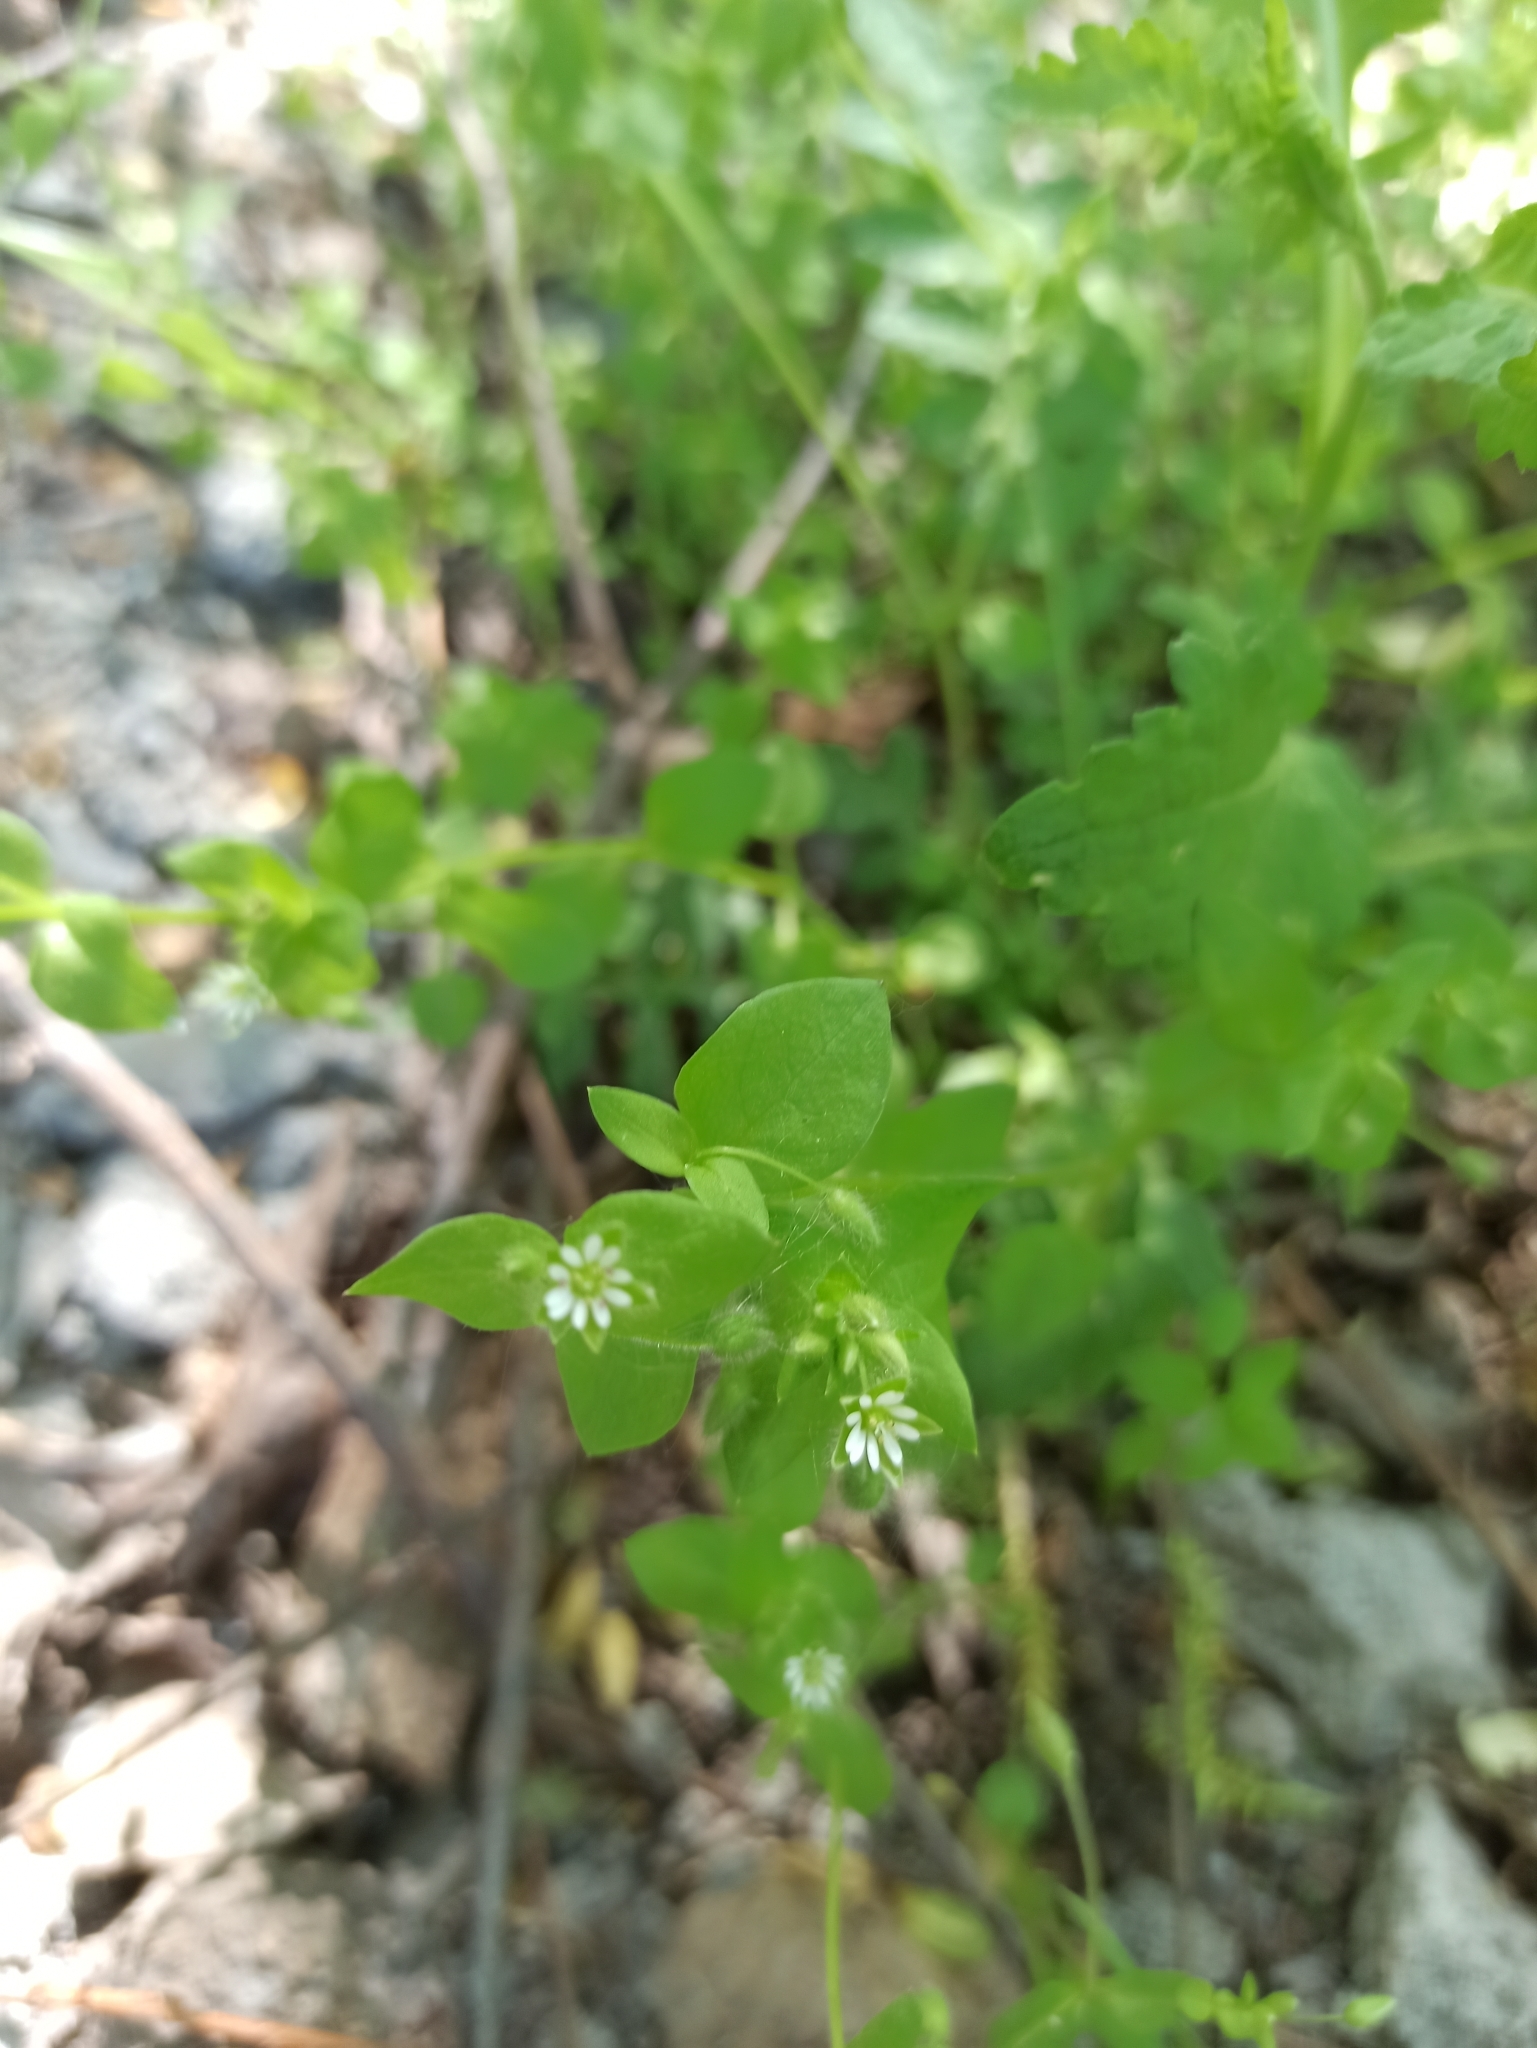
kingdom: Plantae
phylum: Tracheophyta
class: Magnoliopsida
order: Caryophyllales
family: Caryophyllaceae
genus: Stellaria
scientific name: Stellaria media
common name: Common chickweed
